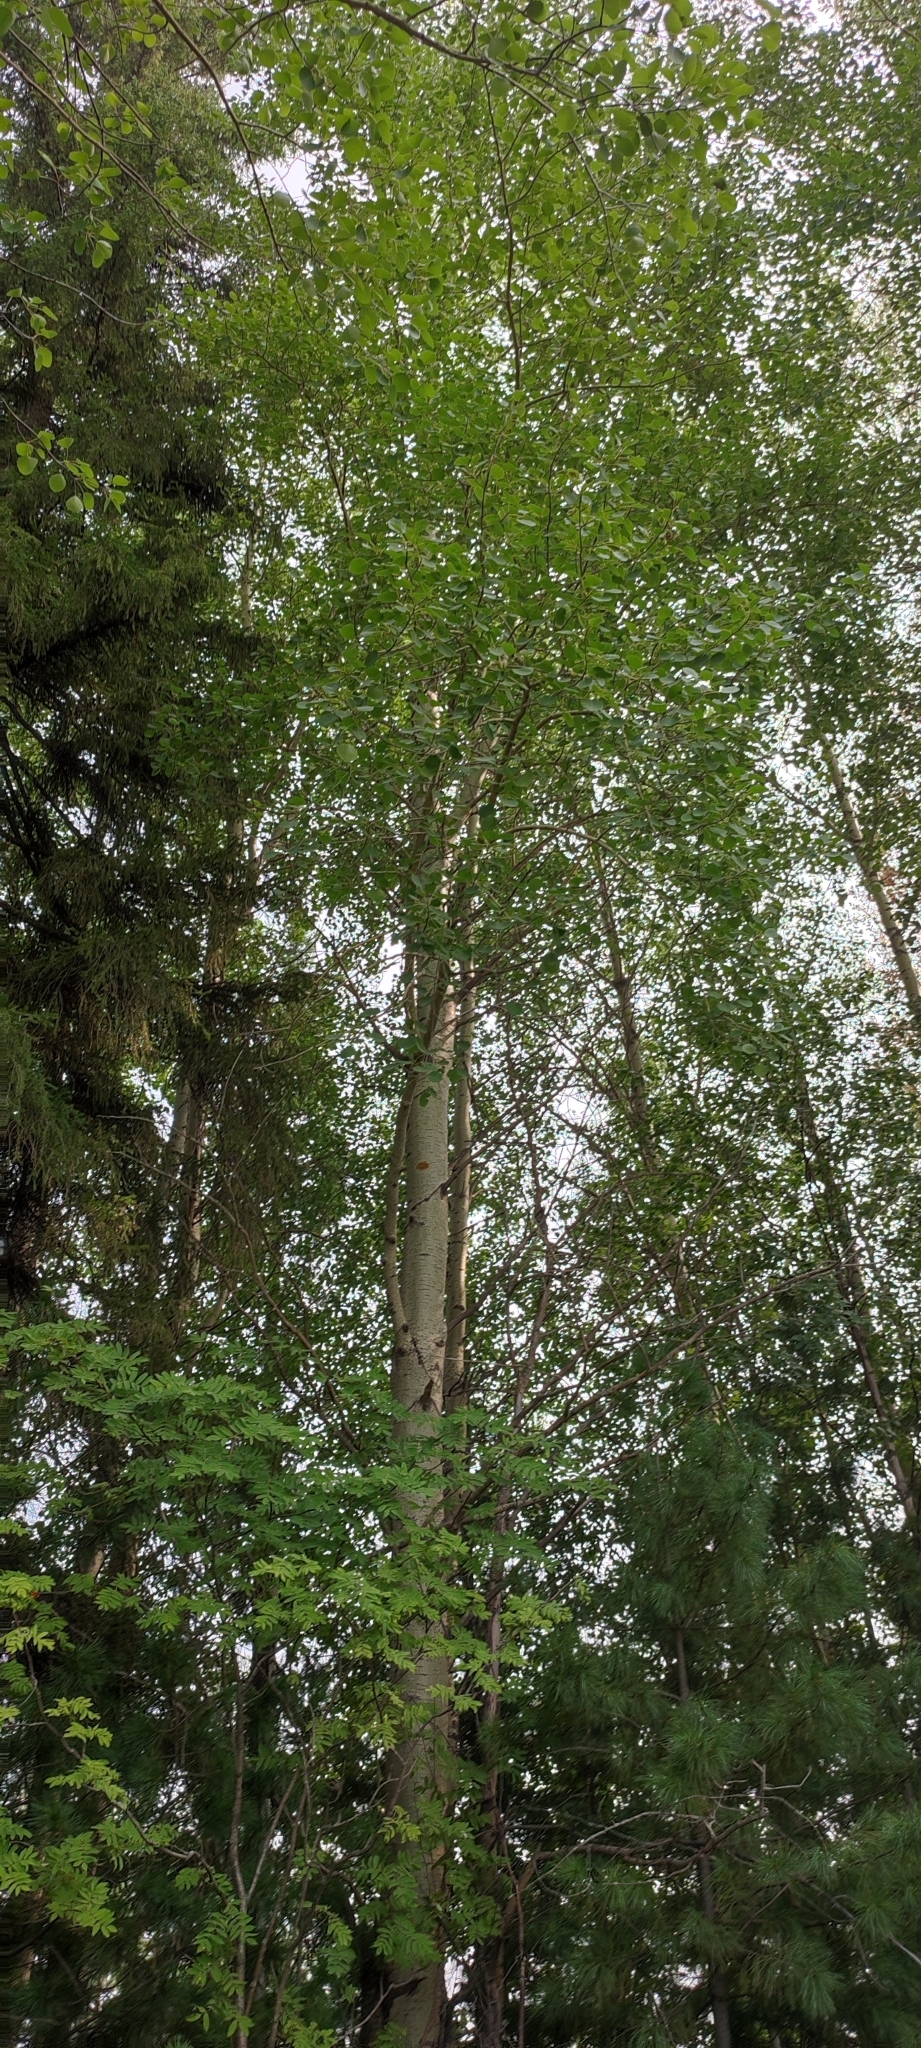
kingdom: Plantae
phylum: Tracheophyta
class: Magnoliopsida
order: Malpighiales
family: Salicaceae
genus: Populus
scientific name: Populus tremula
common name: European aspen
